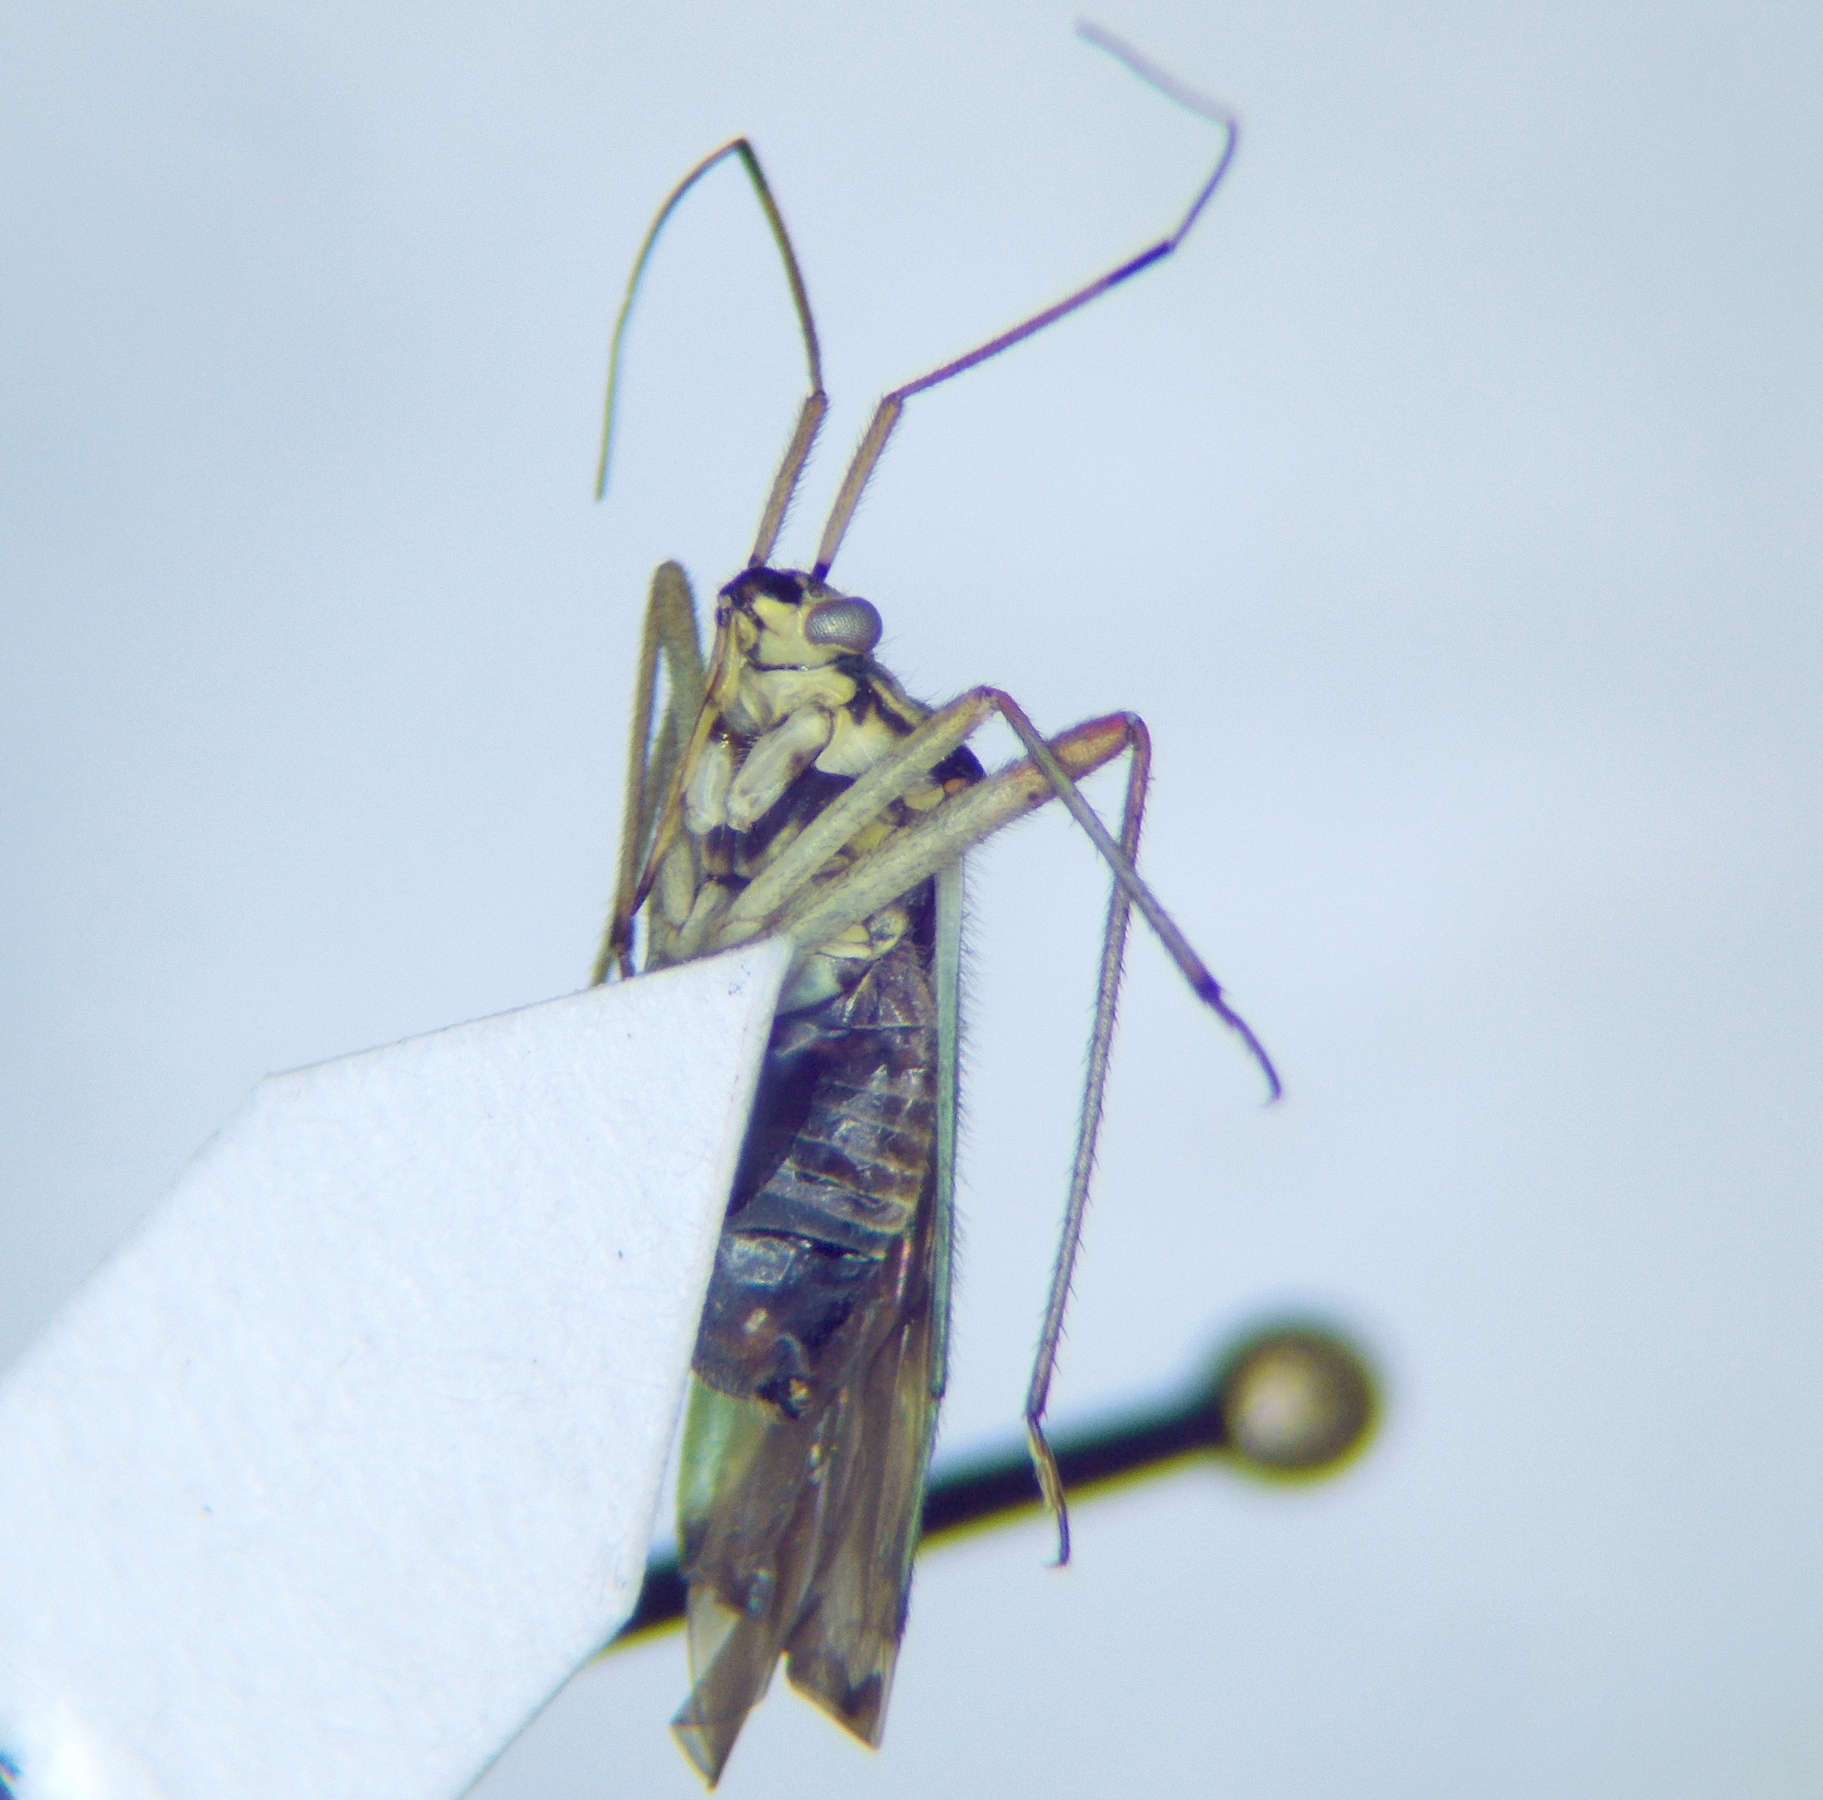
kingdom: Animalia
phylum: Arthropoda
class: Insecta
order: Hemiptera
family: Miridae
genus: Mermitelocerus
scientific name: Mermitelocerus schmidtii
